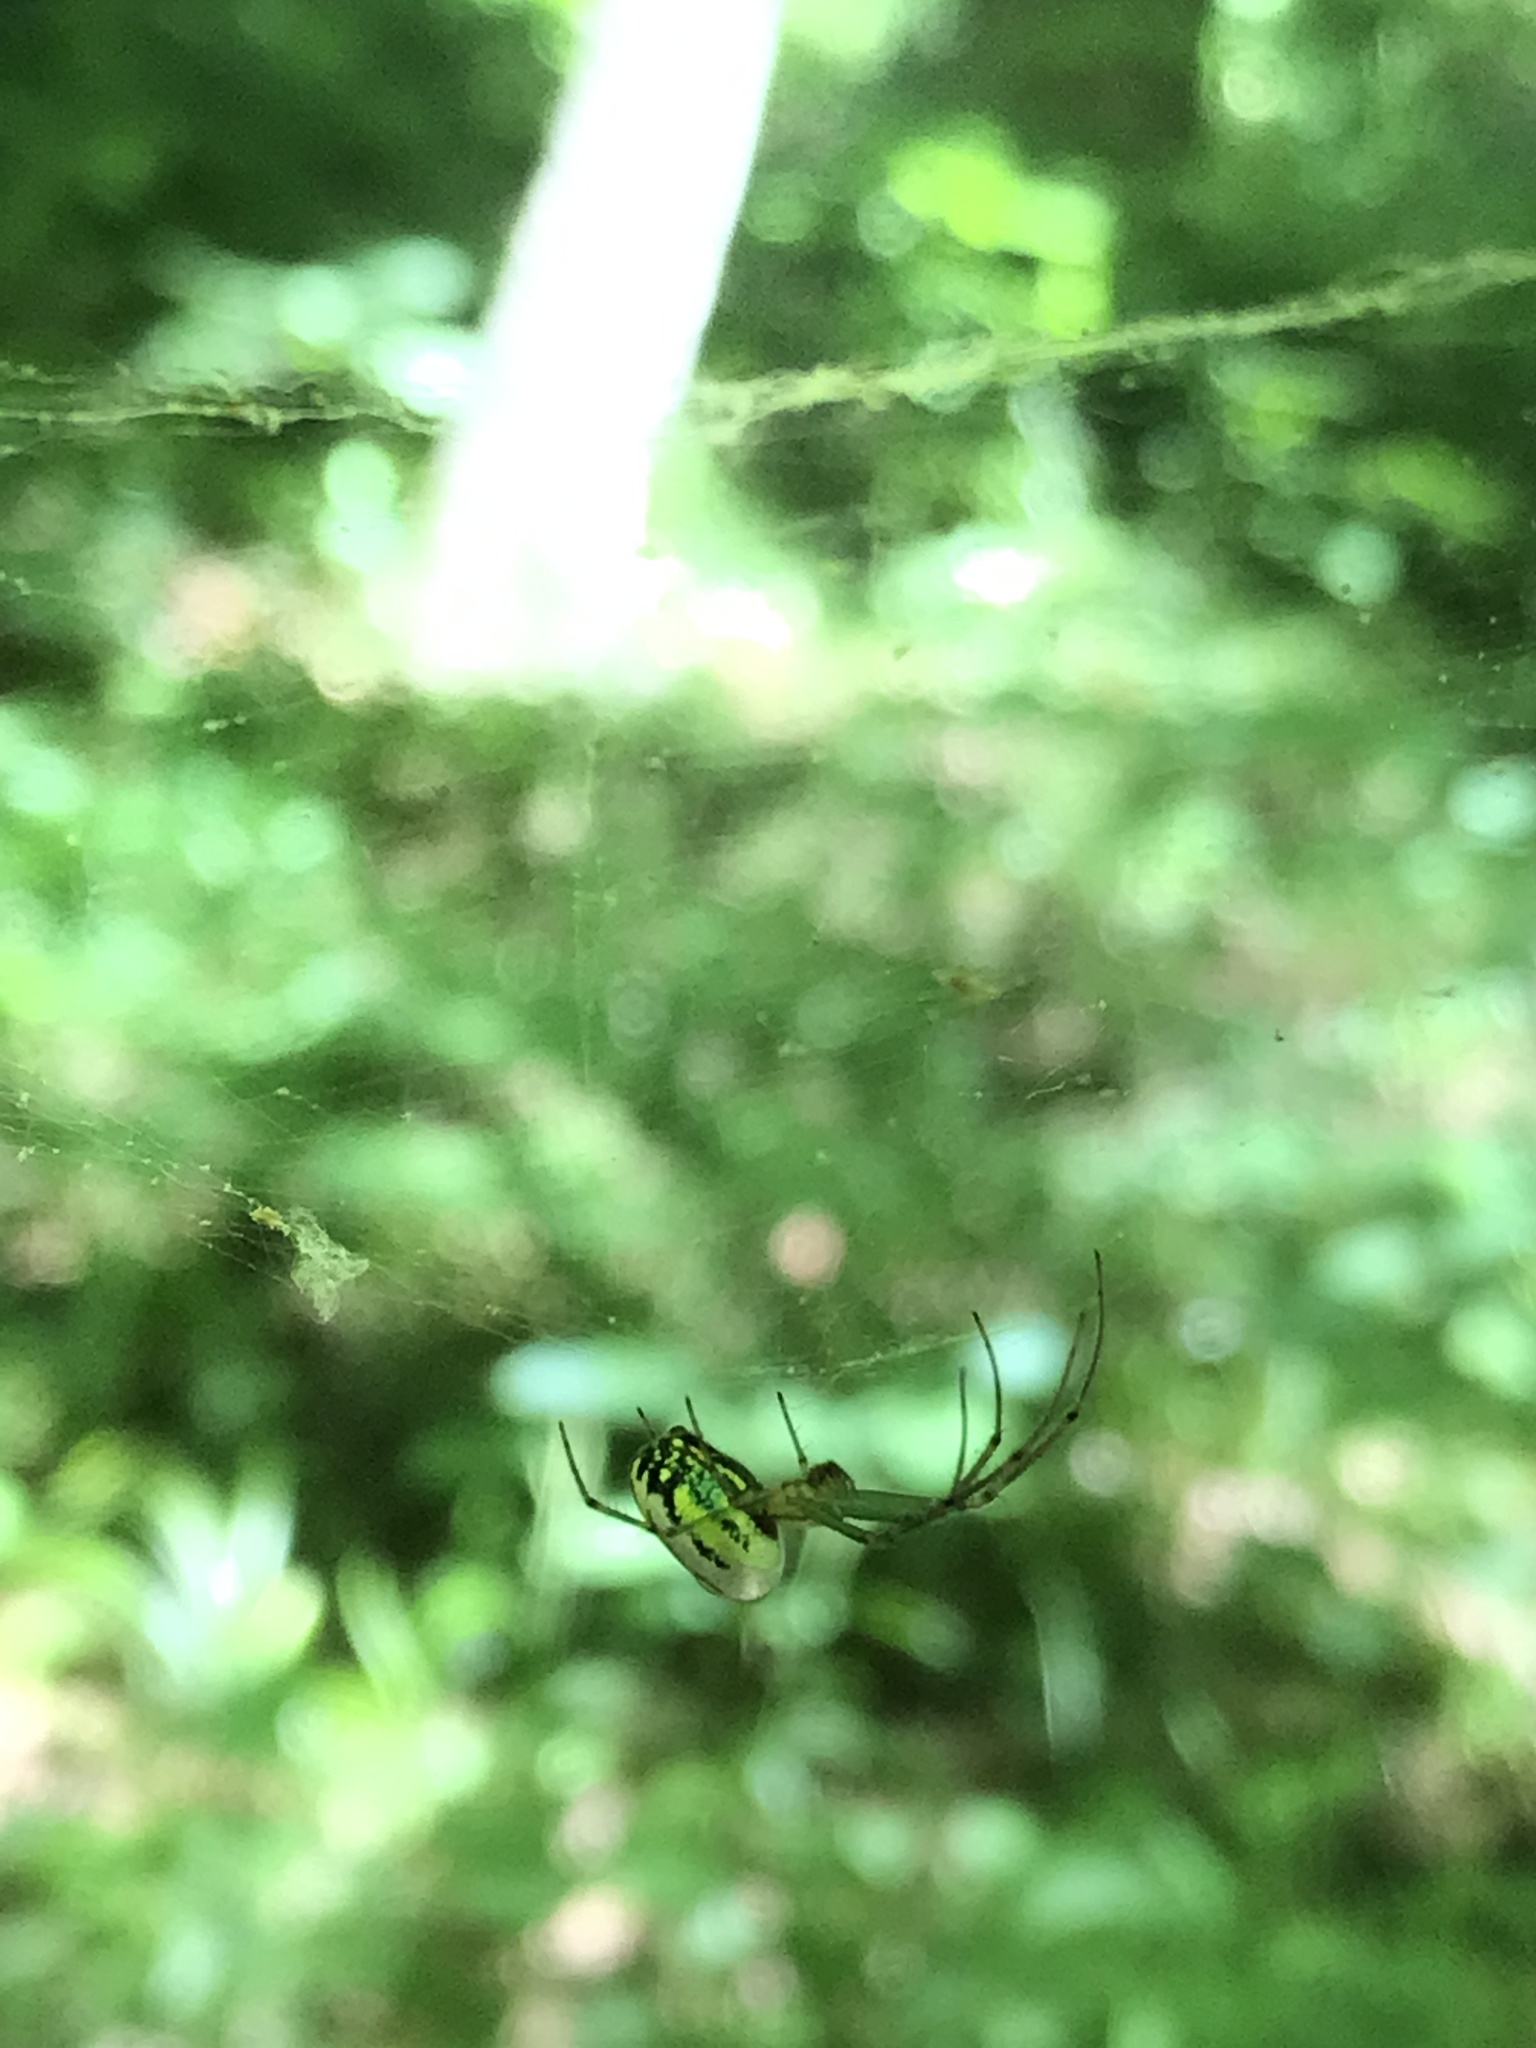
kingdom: Animalia
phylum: Arthropoda
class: Arachnida
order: Araneae
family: Tetragnathidae
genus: Leucauge
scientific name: Leucauge venusta
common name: Longjawed orb weavers
